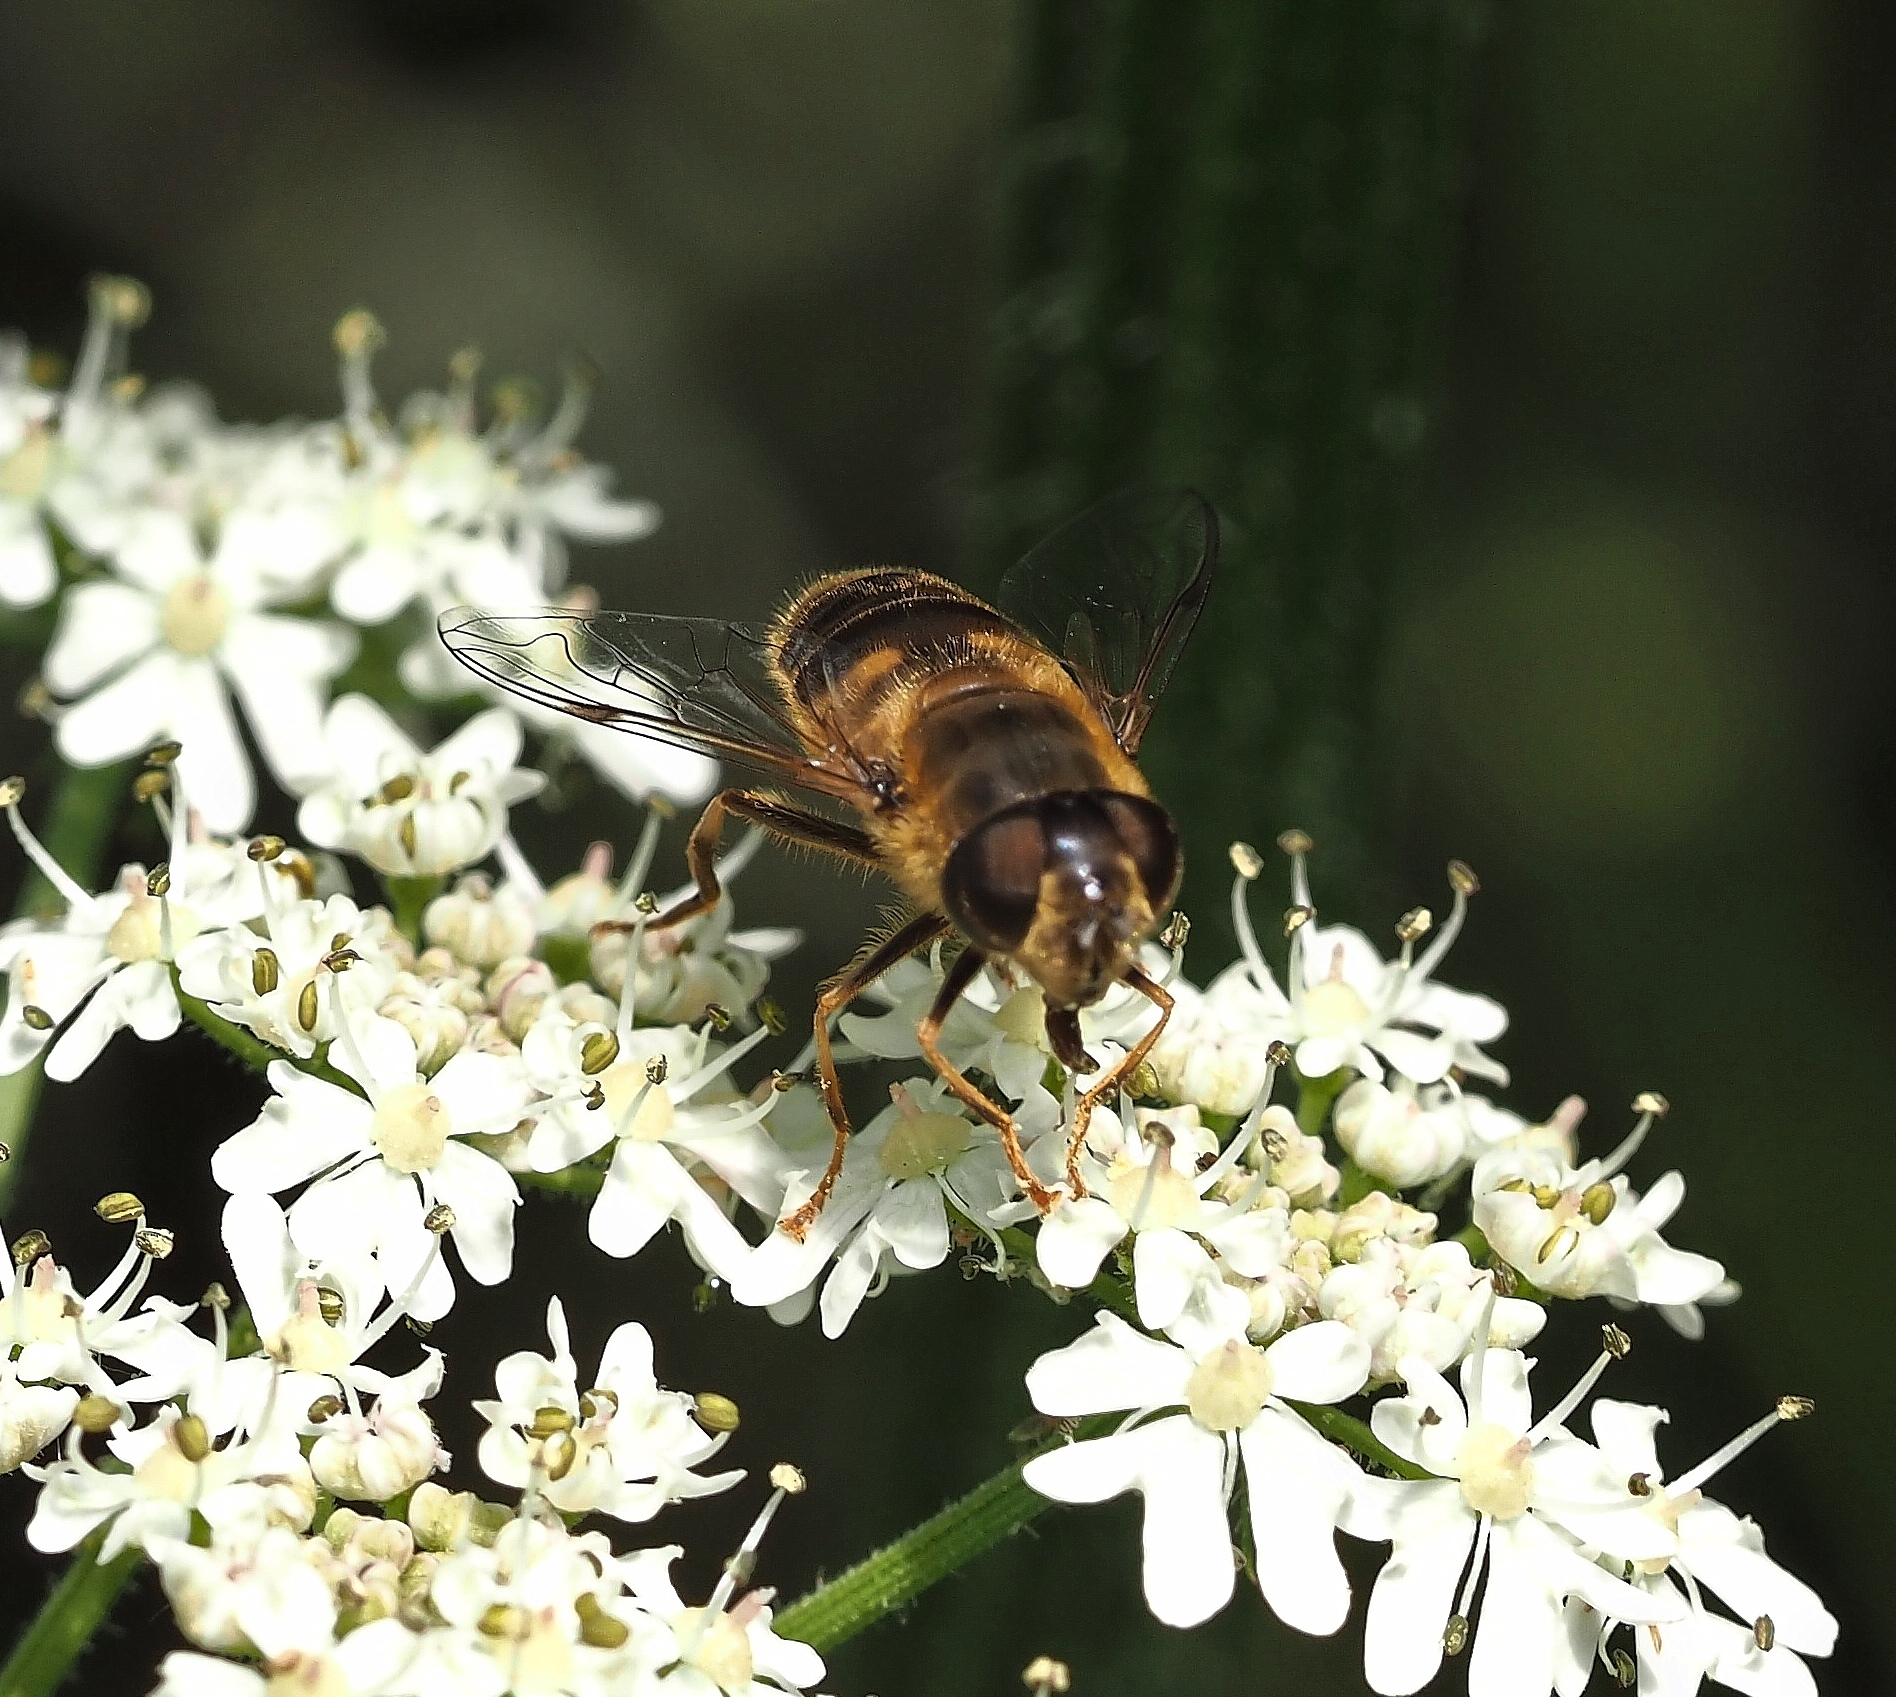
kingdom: Animalia
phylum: Arthropoda
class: Insecta
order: Diptera
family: Syrphidae
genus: Eristalis
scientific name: Eristalis pertinax
